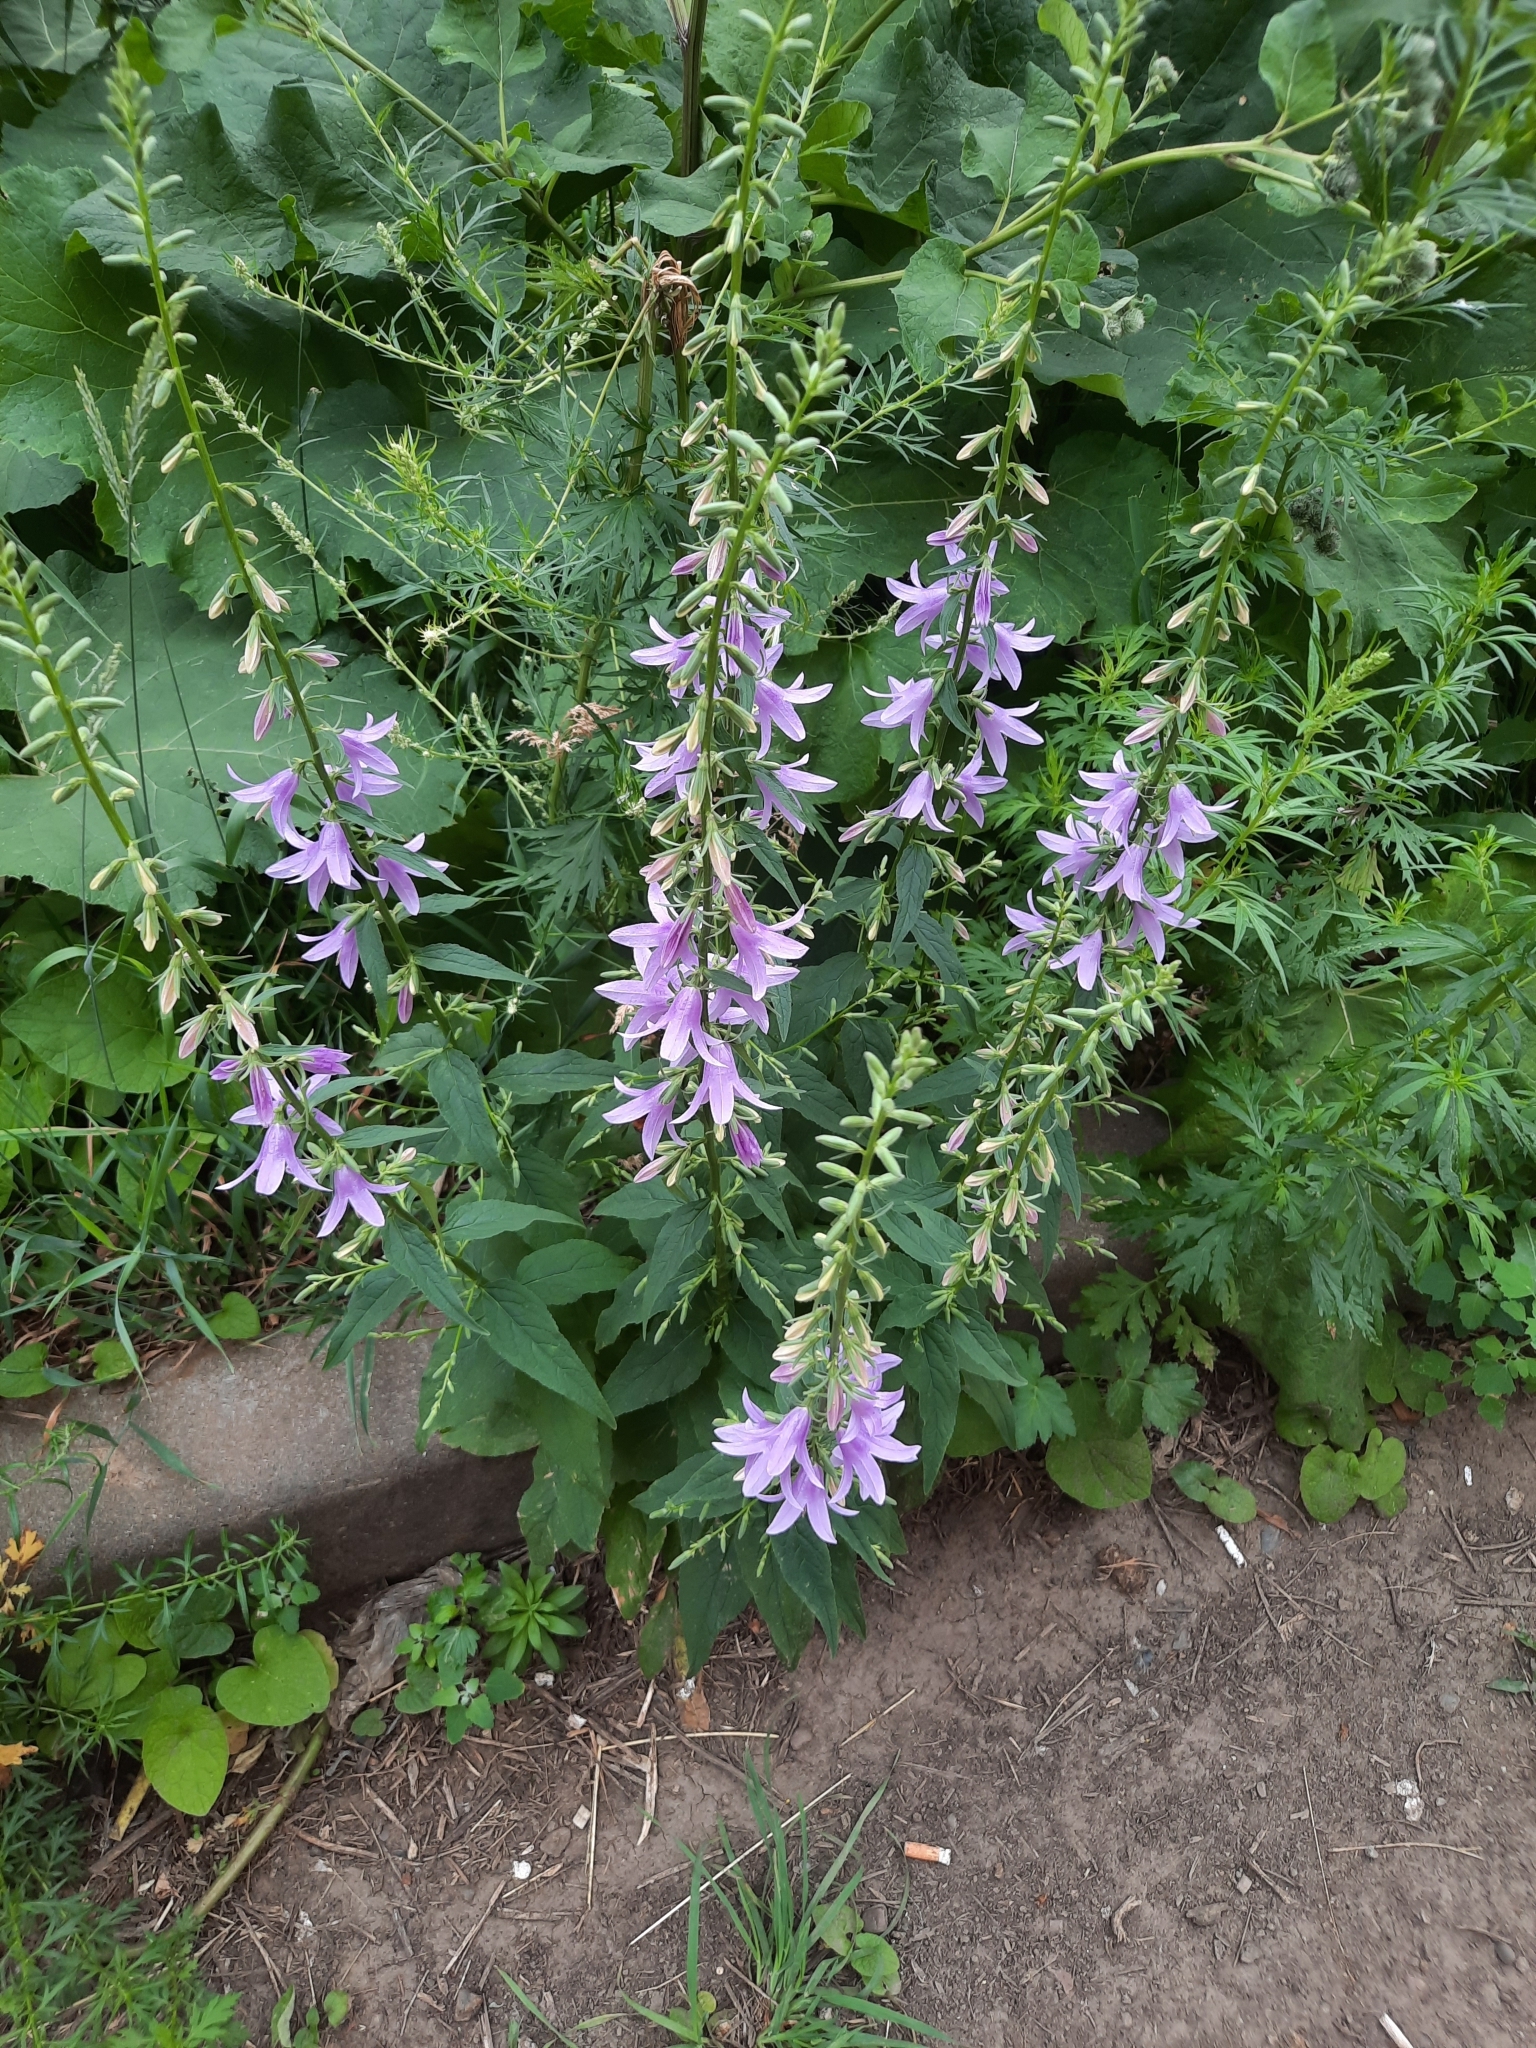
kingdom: Plantae
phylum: Tracheophyta
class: Magnoliopsida
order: Asterales
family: Campanulaceae
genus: Campanula
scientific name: Campanula rapunculoides
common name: Creeping bellflower
